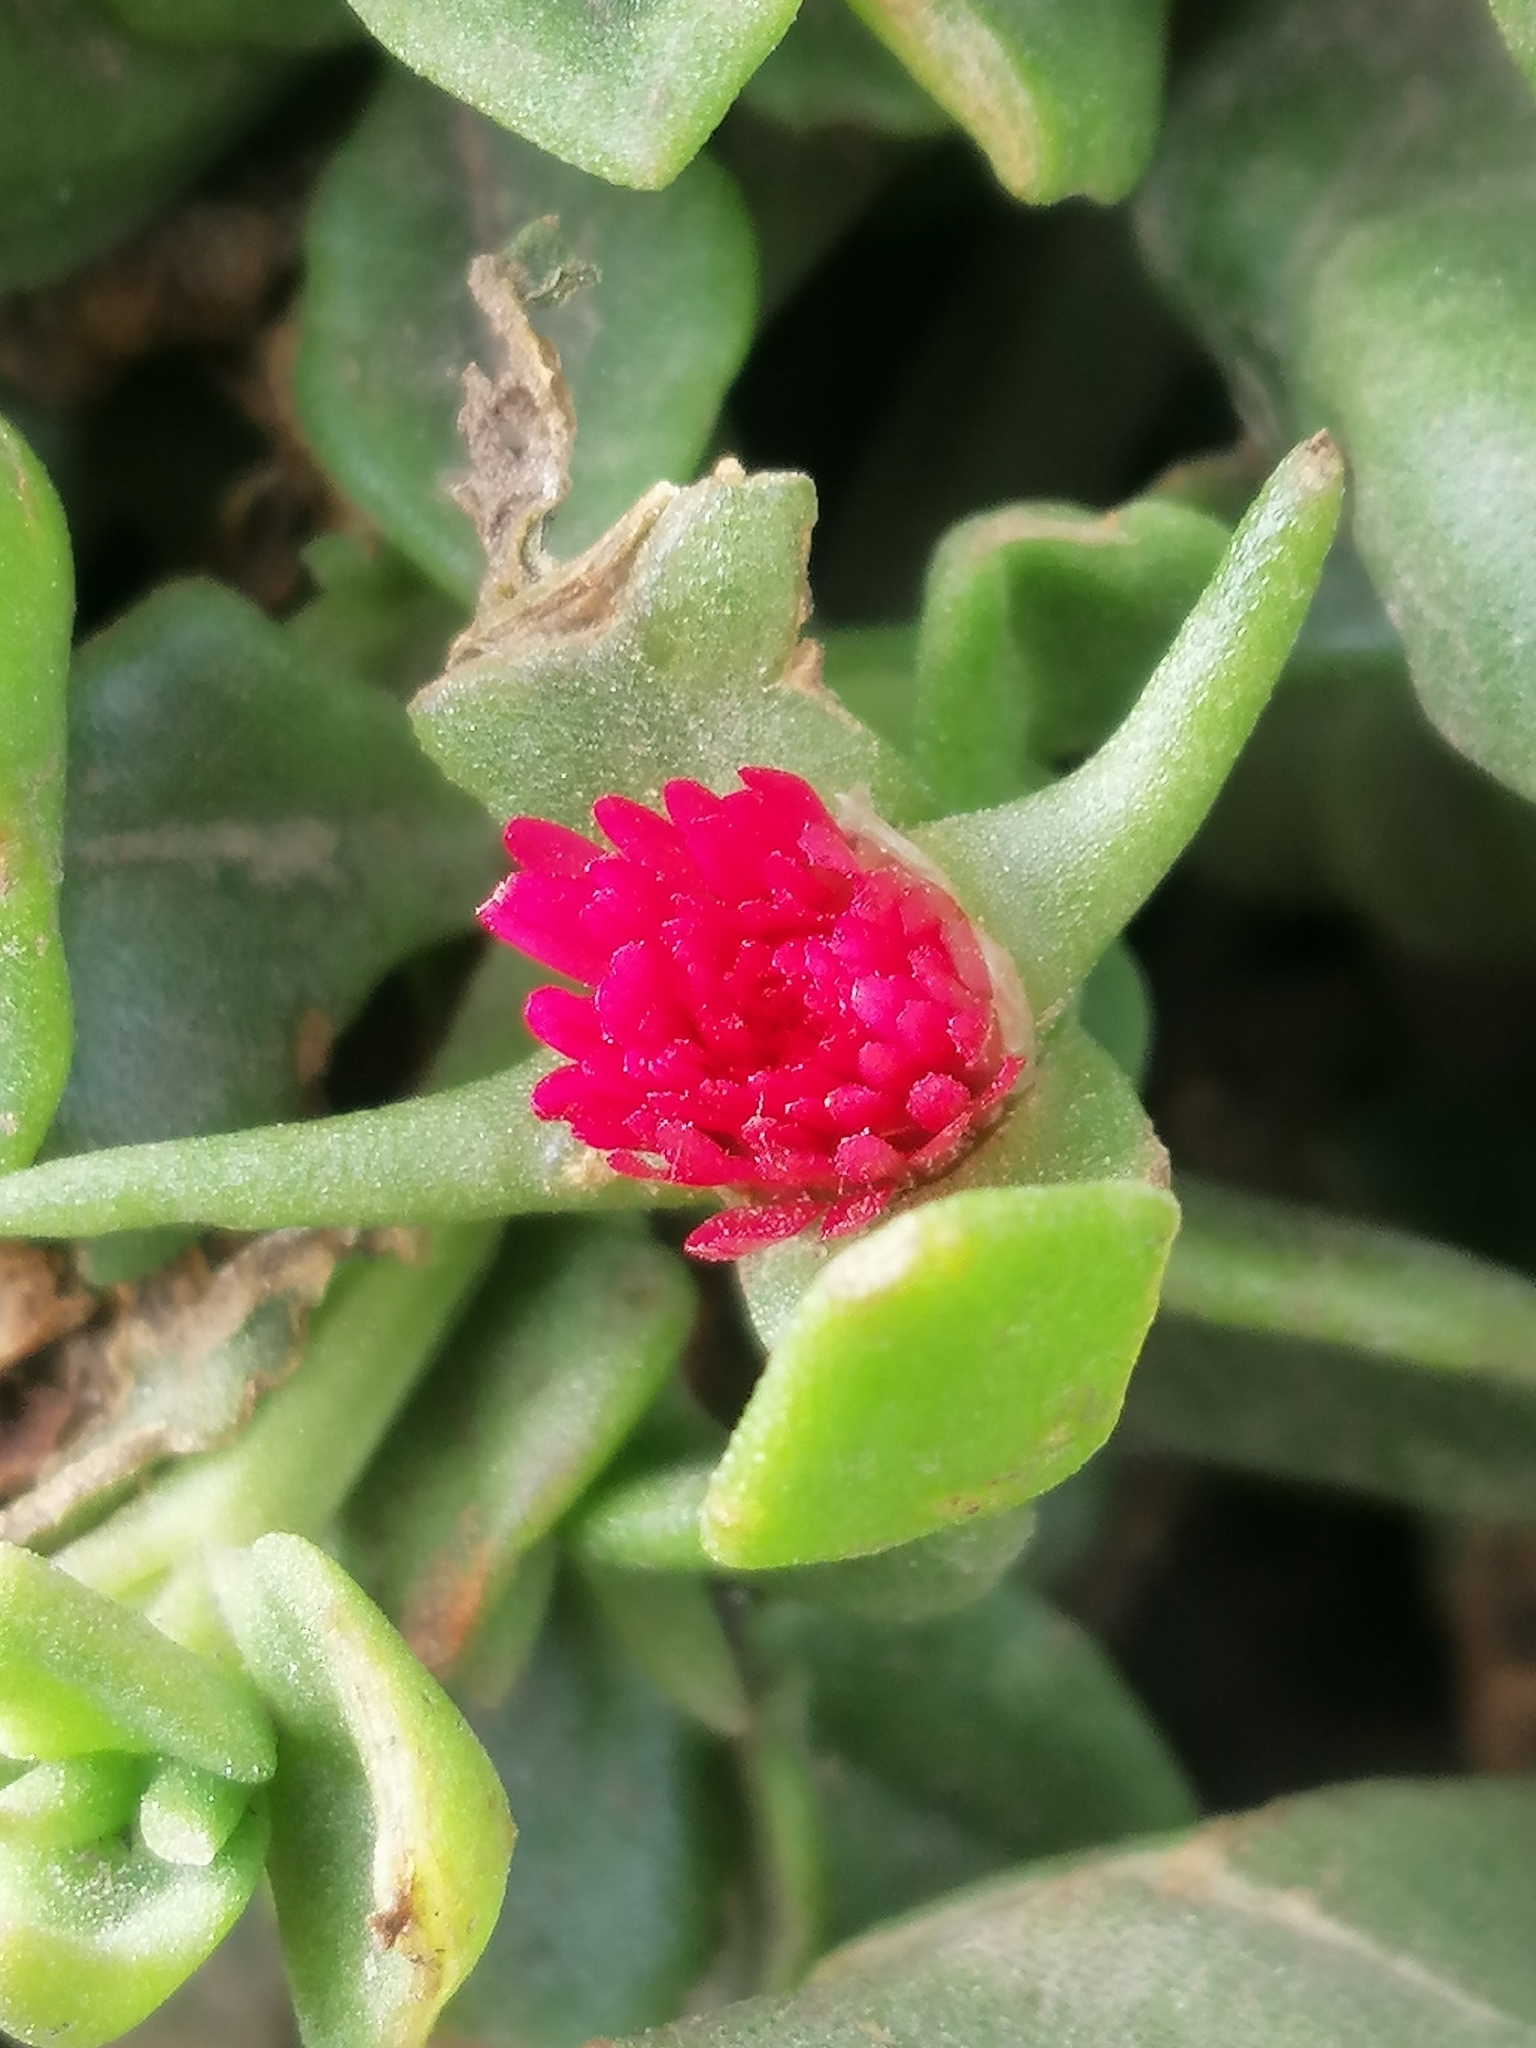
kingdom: Plantae
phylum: Tracheophyta
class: Magnoliopsida
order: Caryophyllales
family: Aizoaceae
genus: Mesembryanthemum
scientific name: Mesembryanthemum cordifolium
